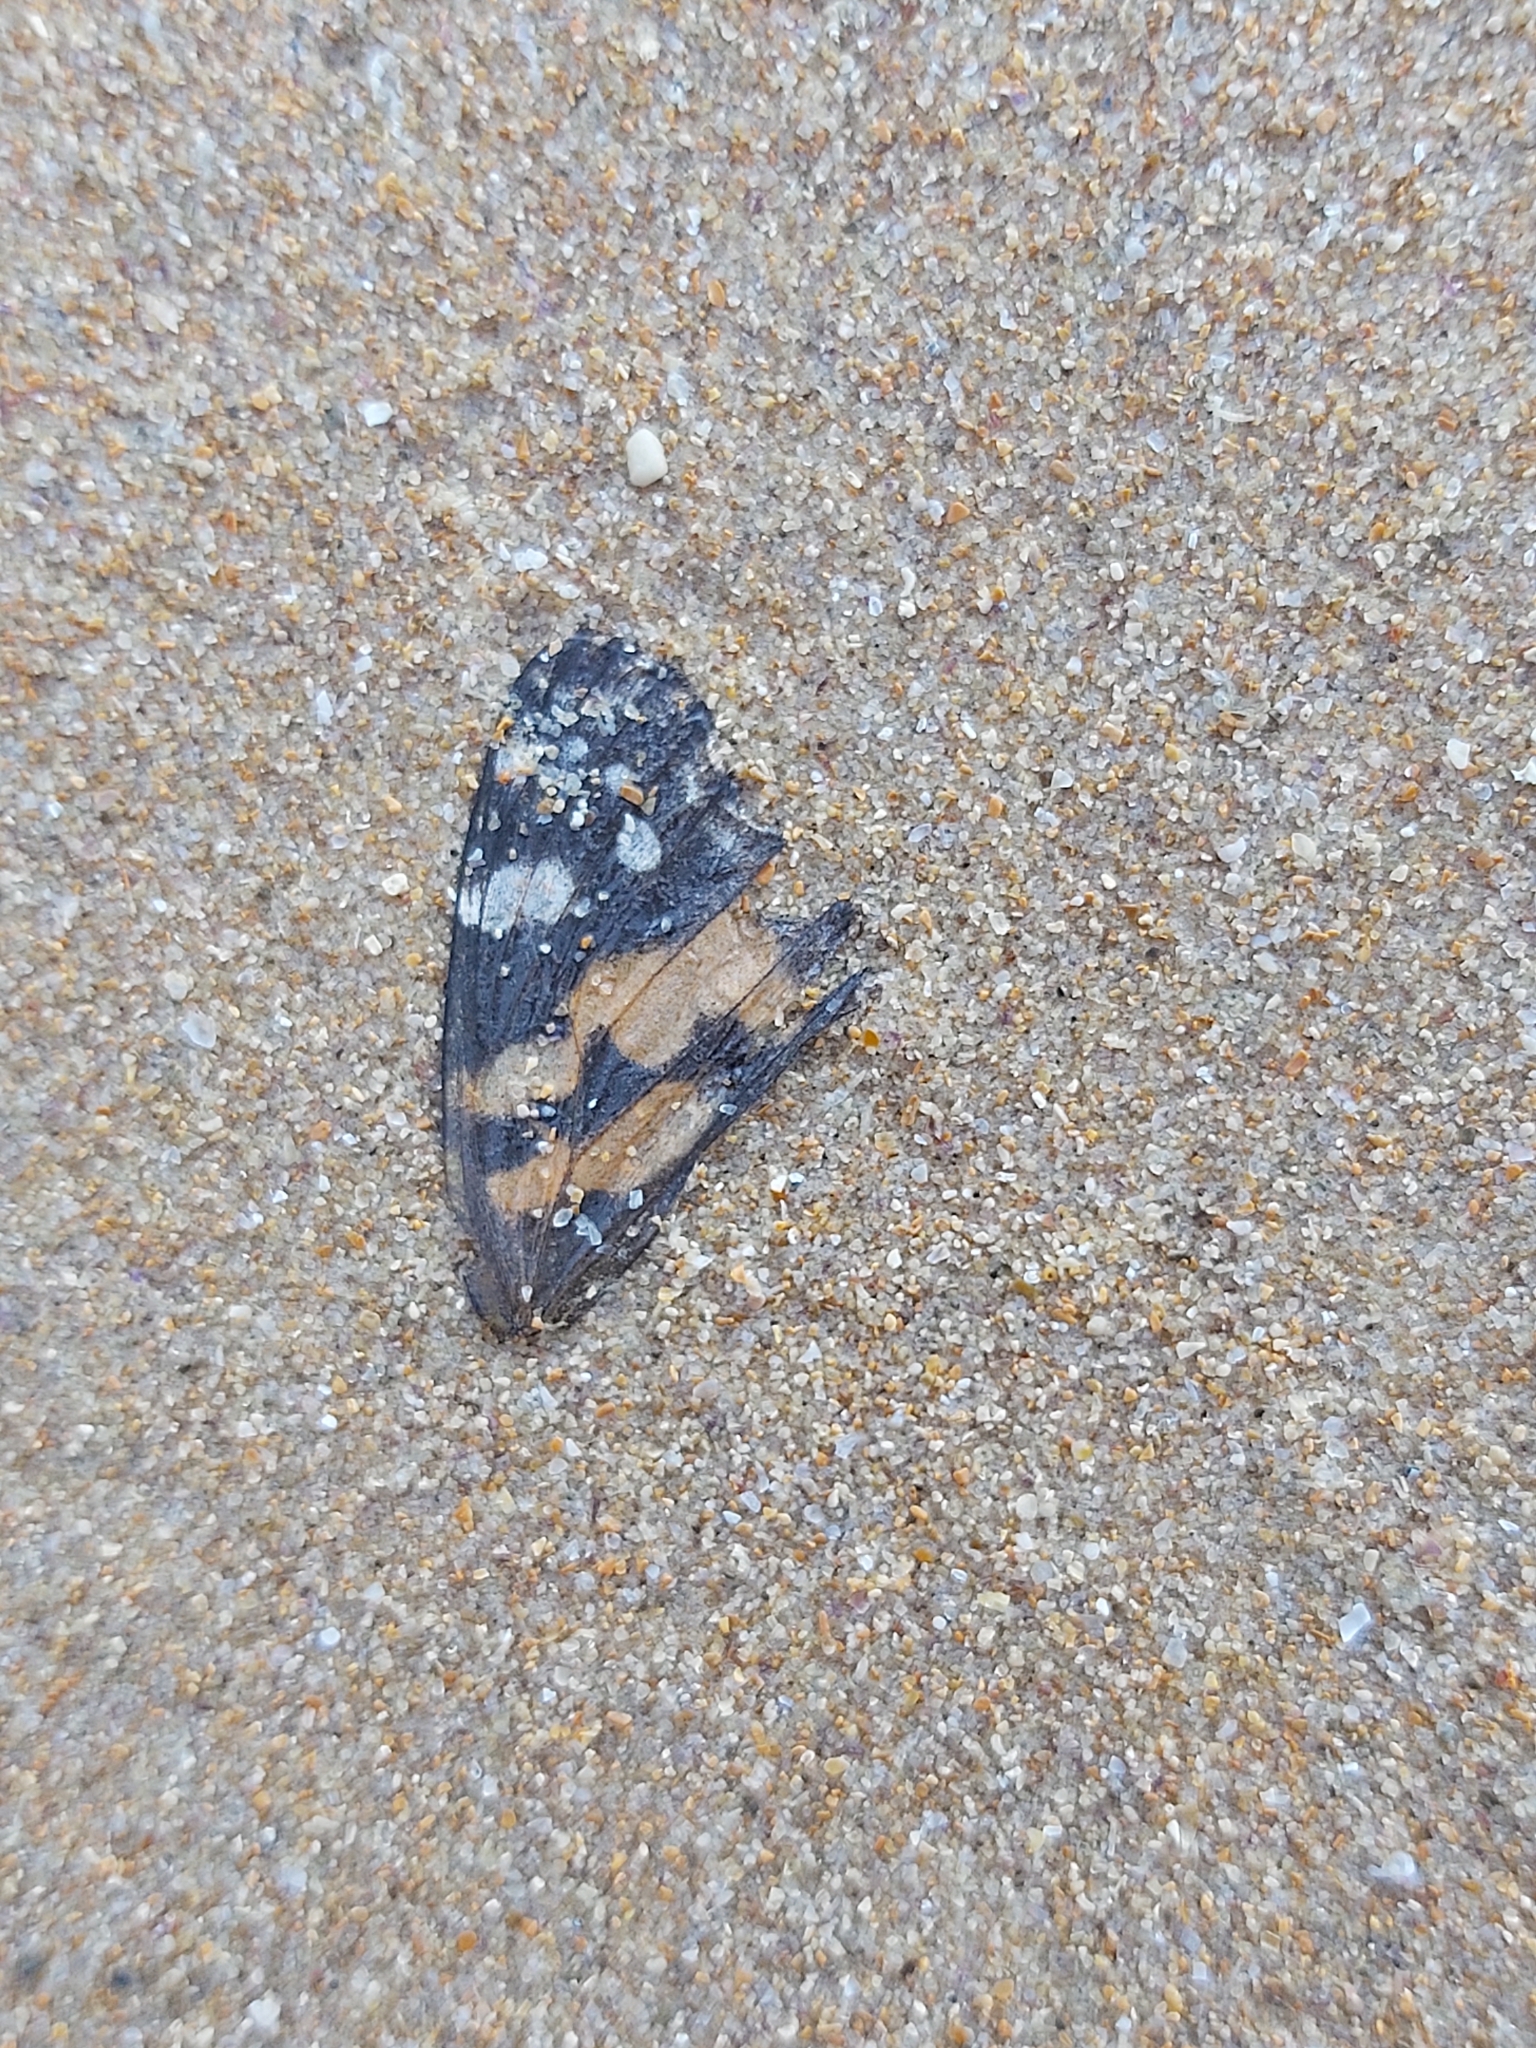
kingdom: Animalia
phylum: Arthropoda
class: Insecta
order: Lepidoptera
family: Nymphalidae
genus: Vanessa
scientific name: Vanessa kershawi
